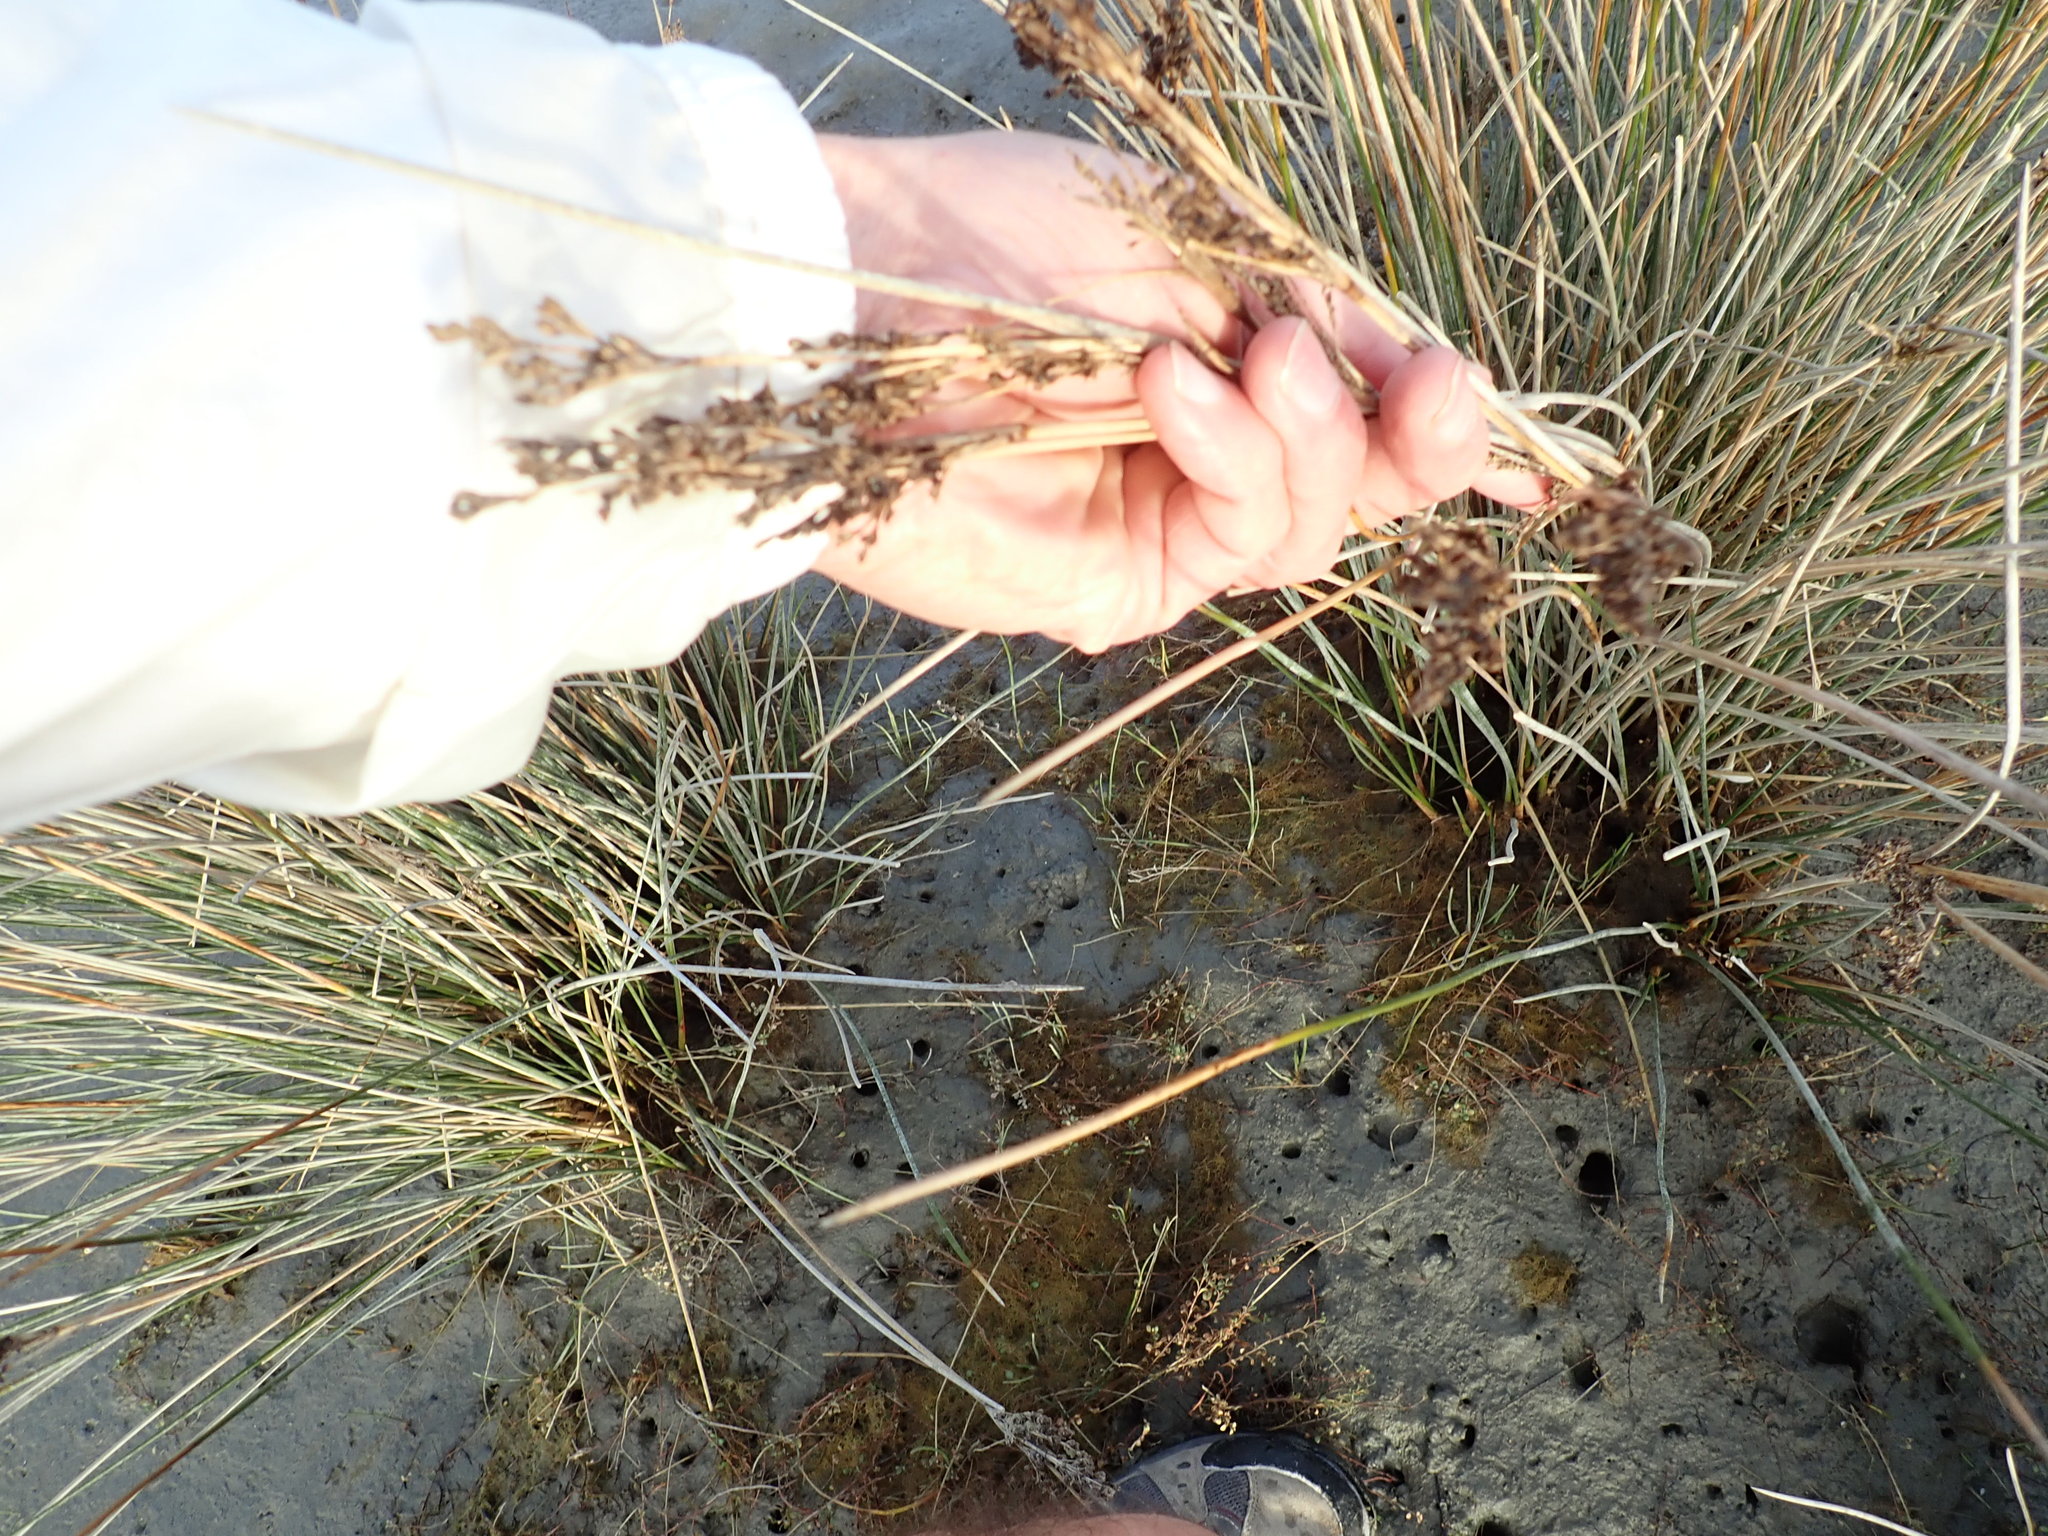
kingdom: Plantae
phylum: Tracheophyta
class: Liliopsida
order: Poales
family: Juncaceae
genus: Juncus
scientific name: Juncus kraussii
